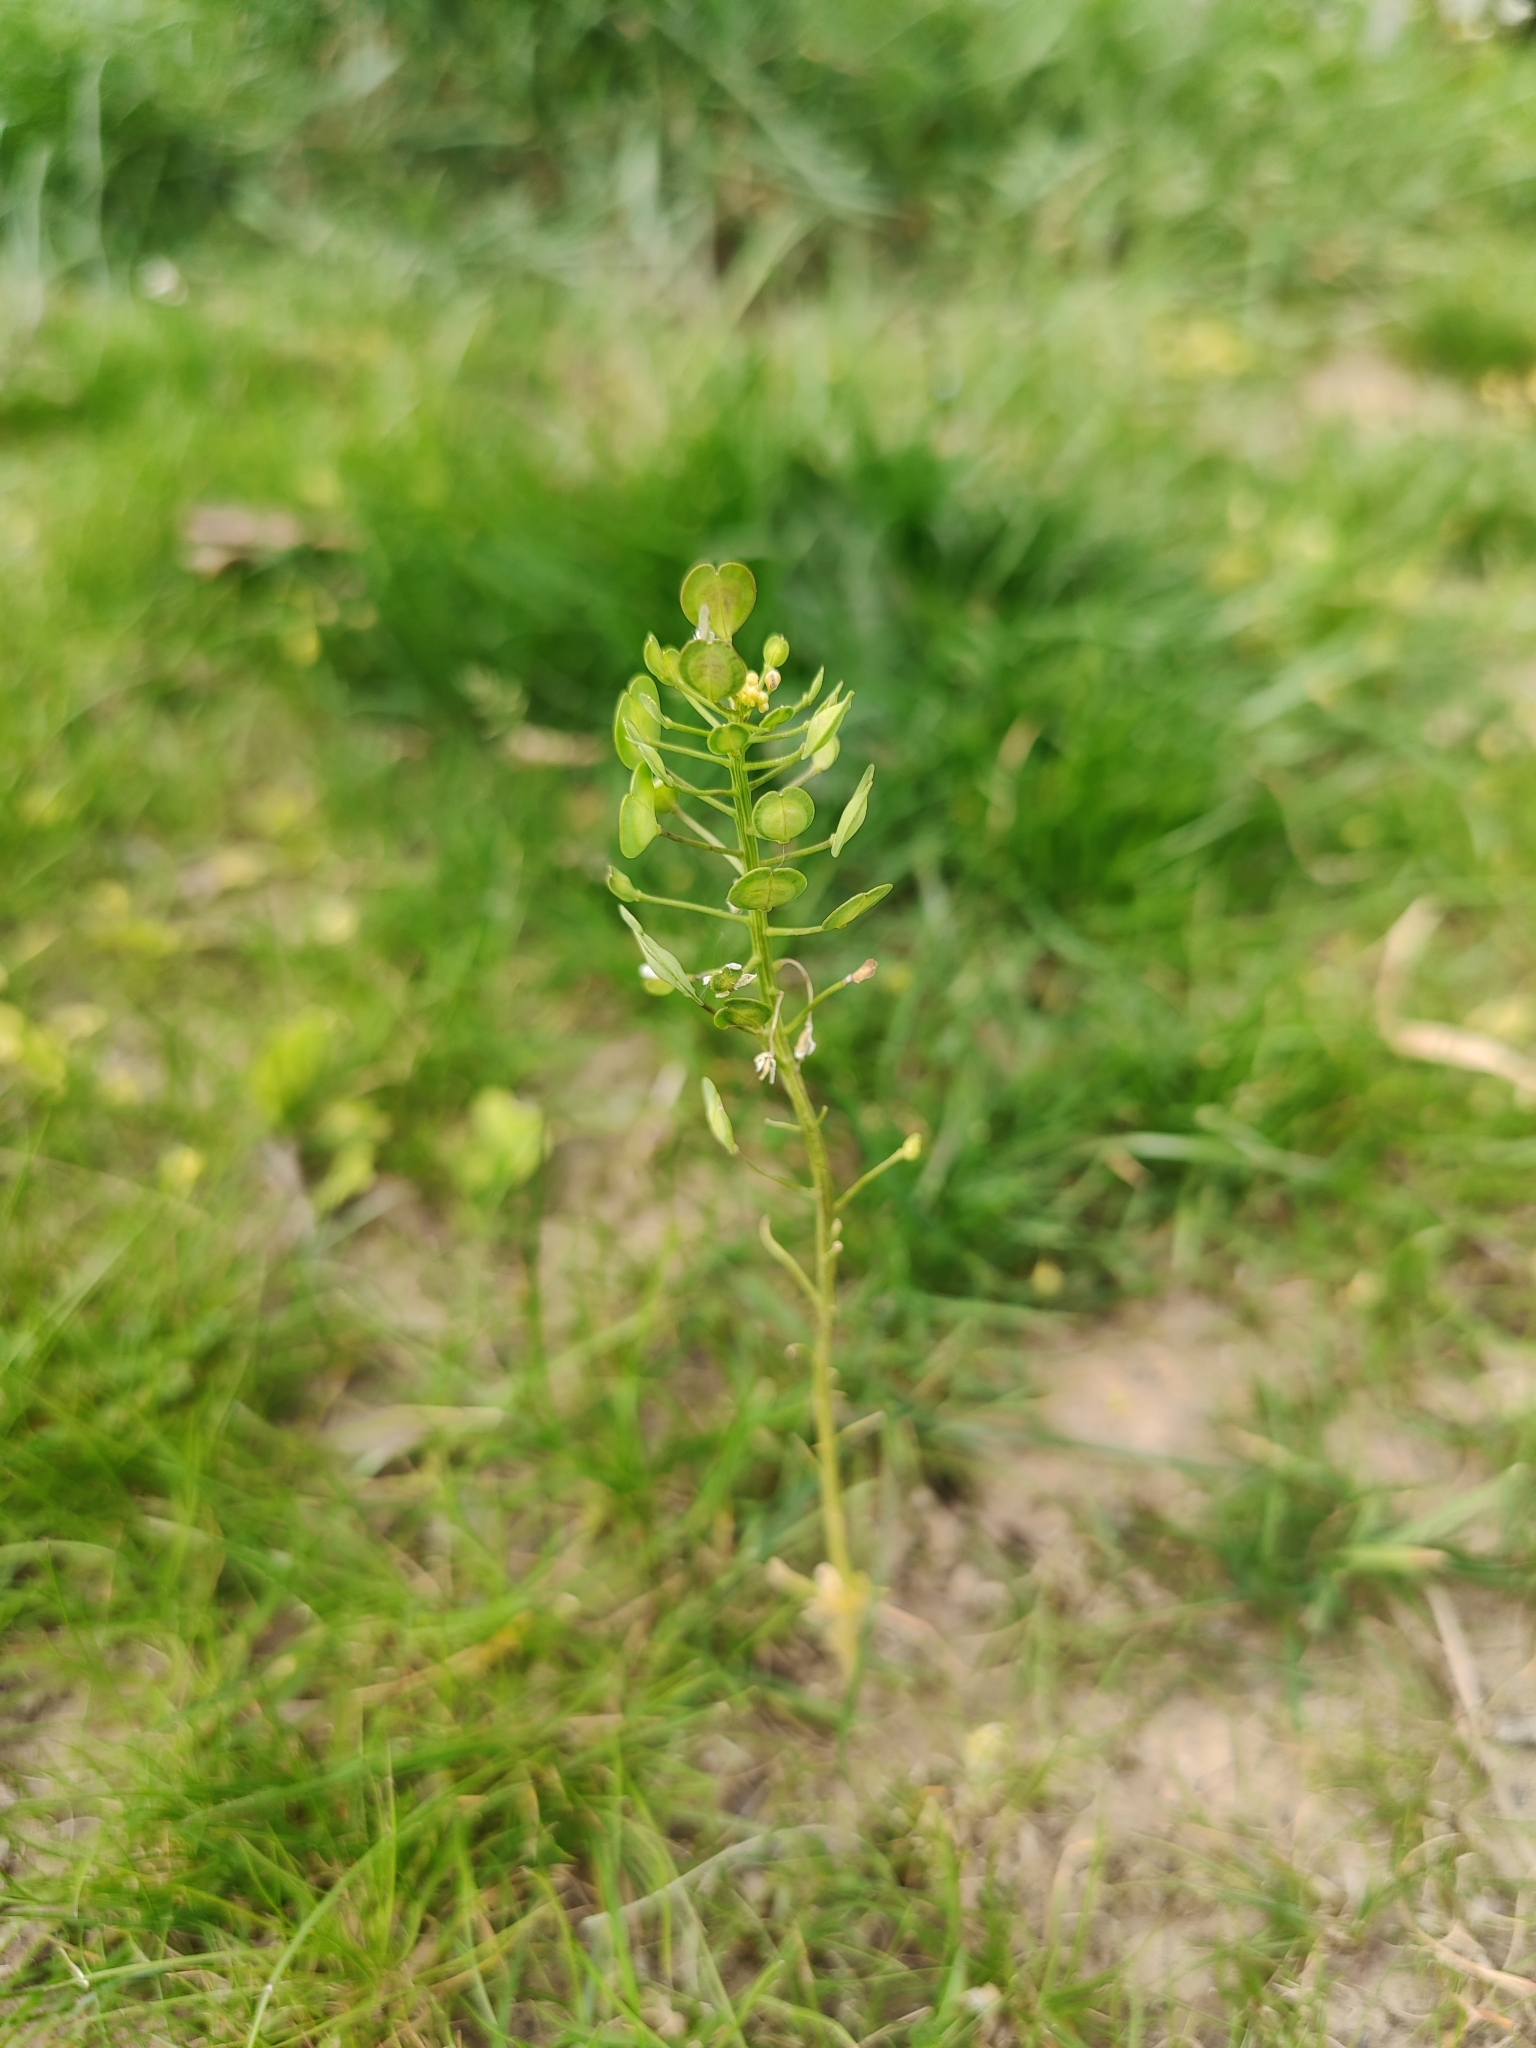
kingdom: Plantae
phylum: Tracheophyta
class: Magnoliopsida
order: Brassicales
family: Brassicaceae
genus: Thlaspi
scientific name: Thlaspi arvense
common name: Field pennycress
